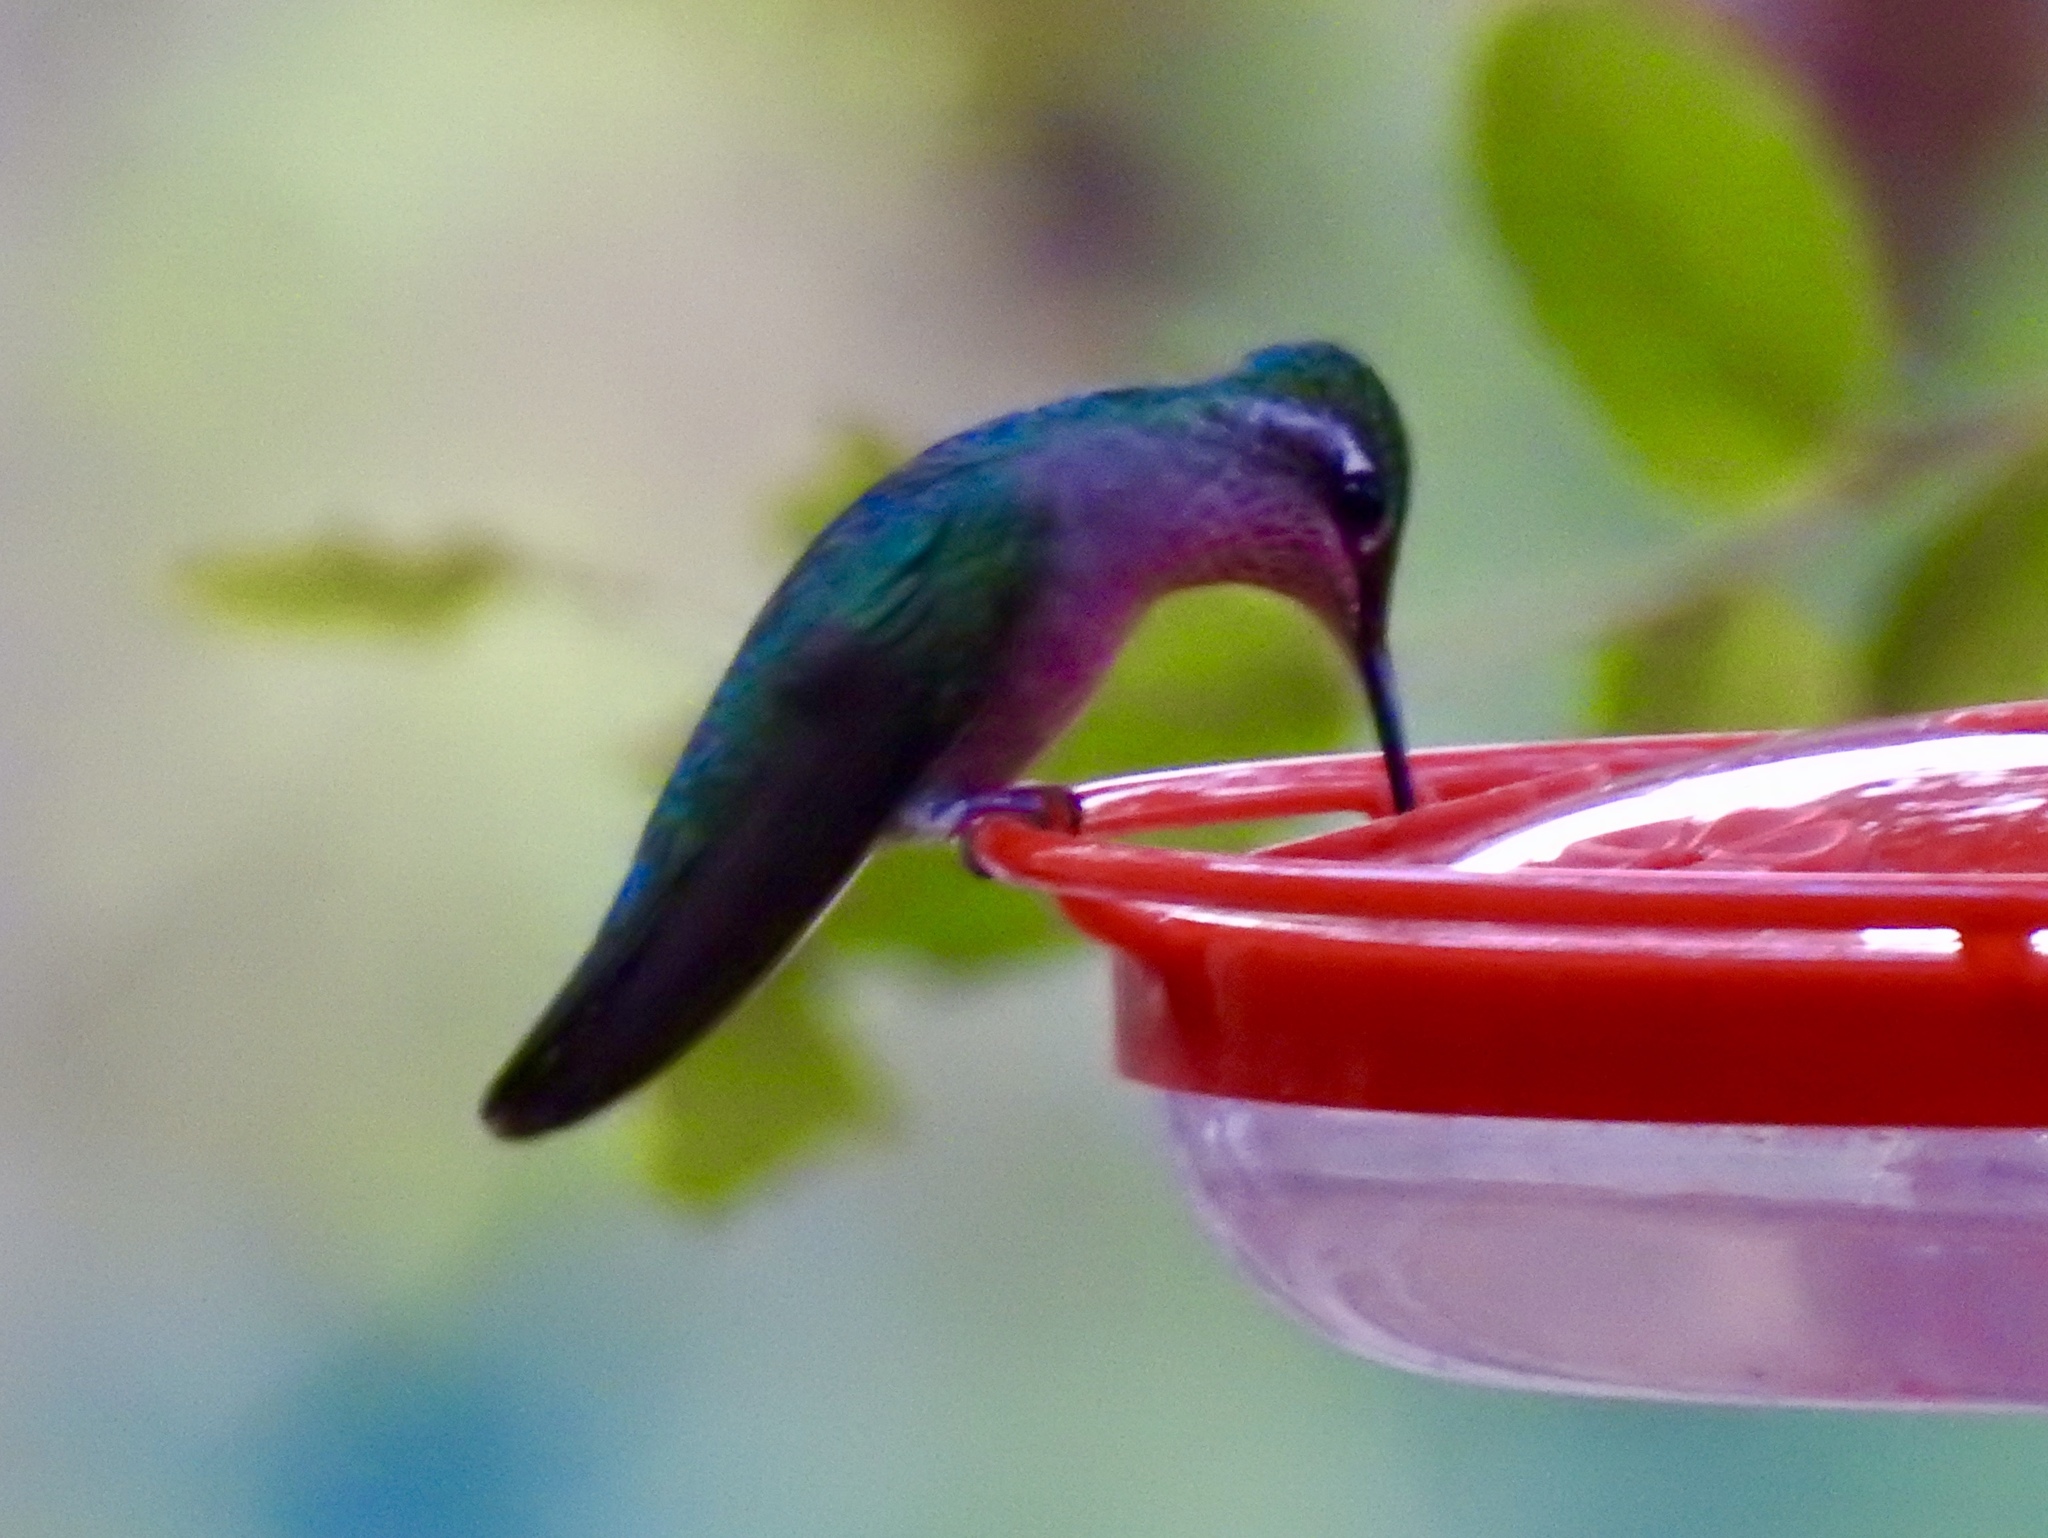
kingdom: Animalia
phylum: Chordata
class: Aves
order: Apodiformes
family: Trochilidae
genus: Eugenes
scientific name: Eugenes fulgens
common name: Magnificent hummingbird
